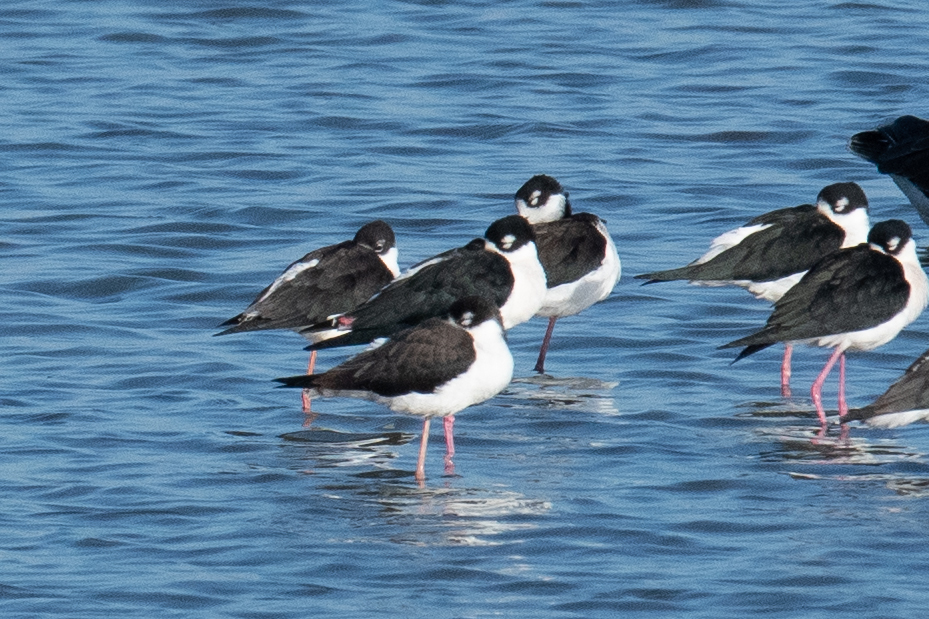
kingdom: Animalia
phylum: Chordata
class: Aves
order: Charadriiformes
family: Recurvirostridae
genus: Himantopus
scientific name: Himantopus mexicanus
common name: Black-necked stilt
